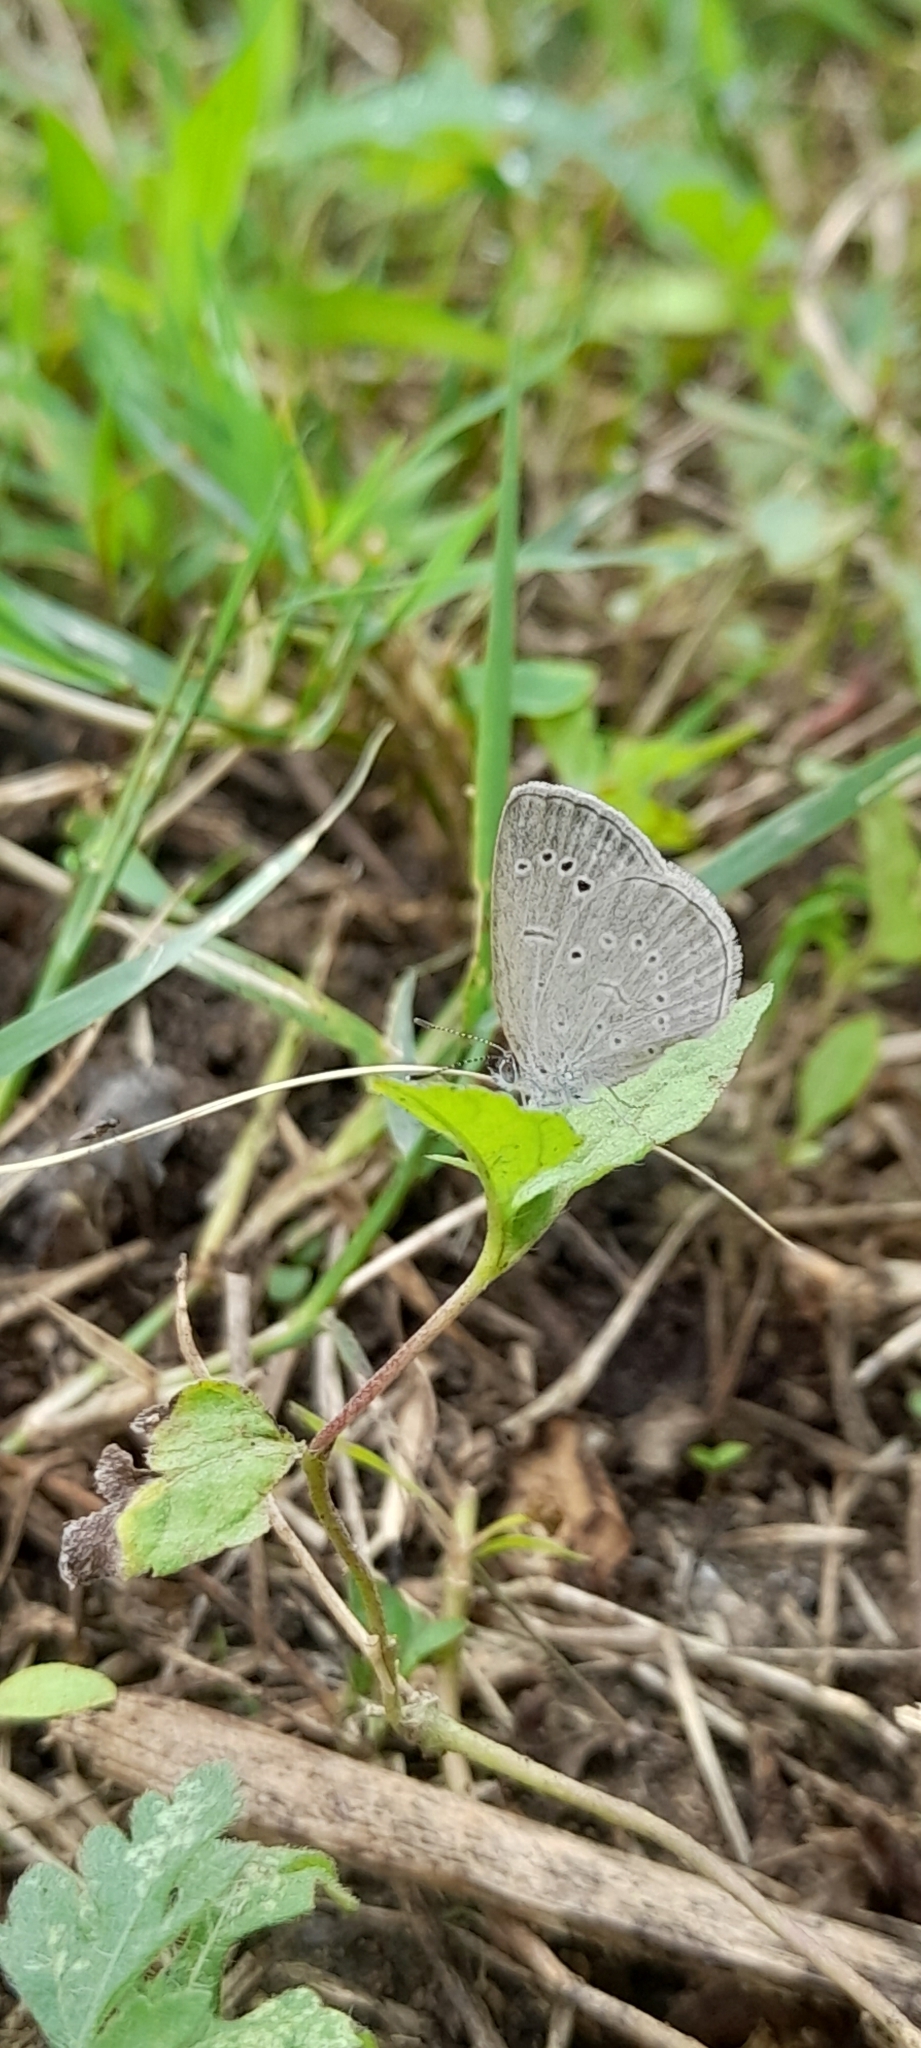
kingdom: Animalia
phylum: Arthropoda
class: Insecta
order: Lepidoptera
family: Lycaenidae
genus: Pseudozizeeria
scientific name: Pseudozizeeria maha
